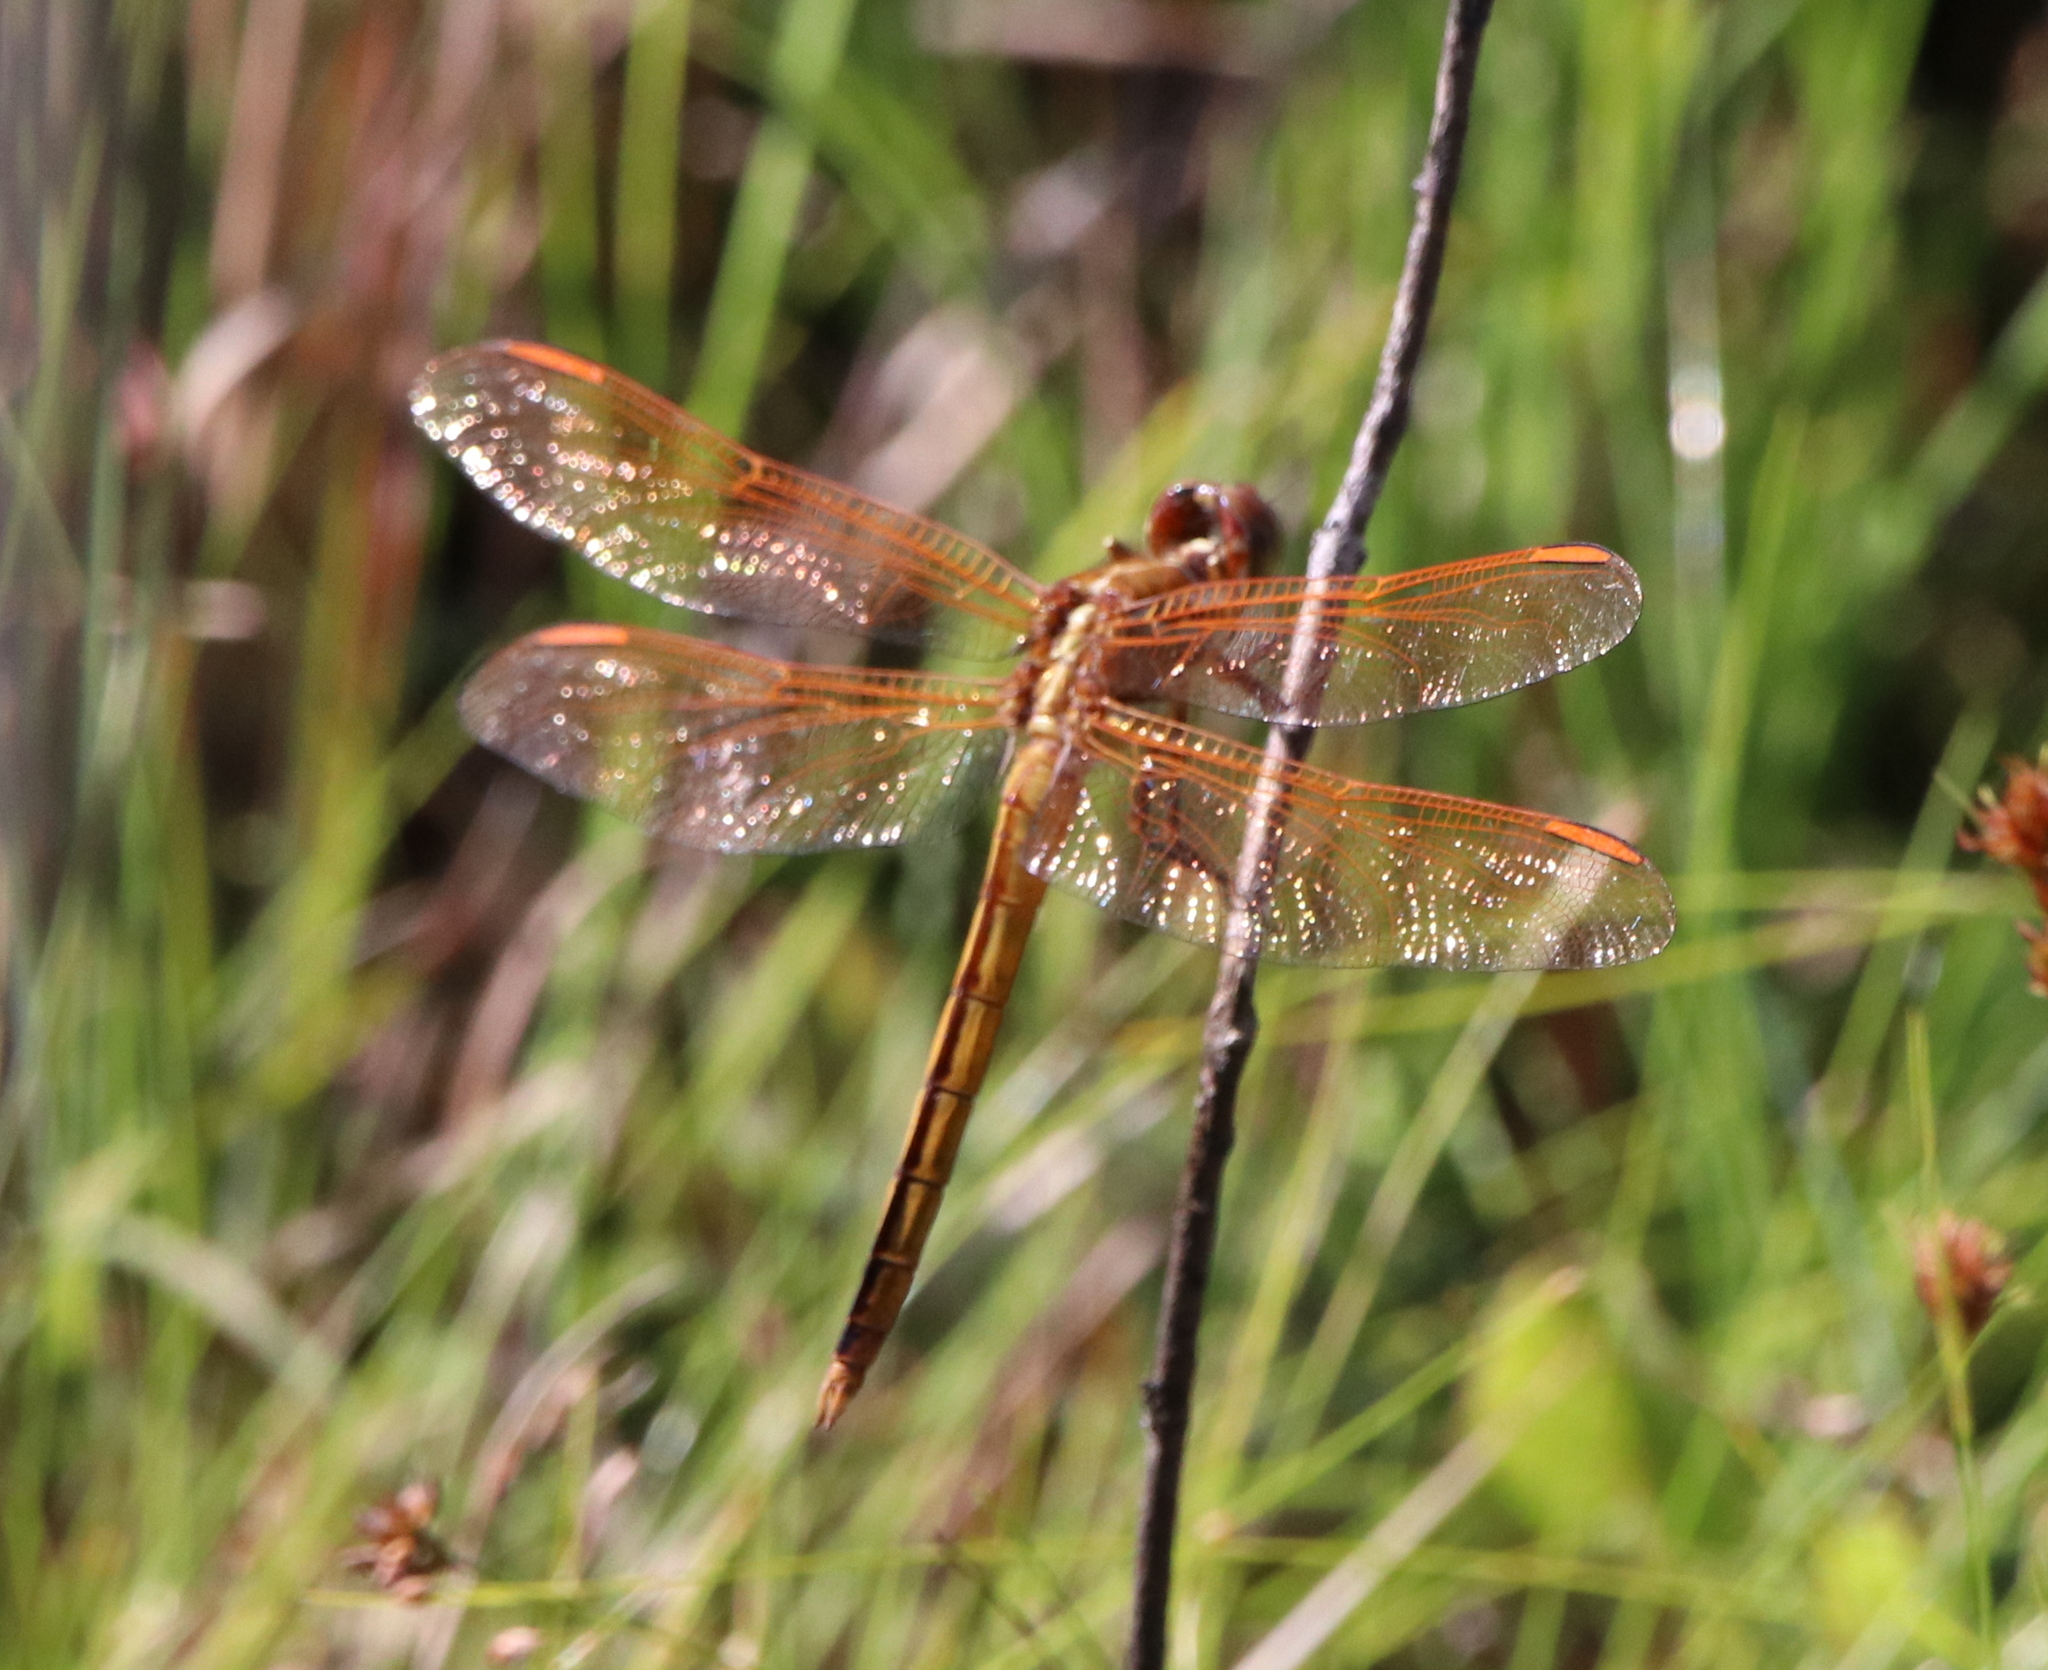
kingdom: Animalia
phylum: Arthropoda
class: Insecta
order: Odonata
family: Libellulidae
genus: Libellula
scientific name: Libellula auripennis
